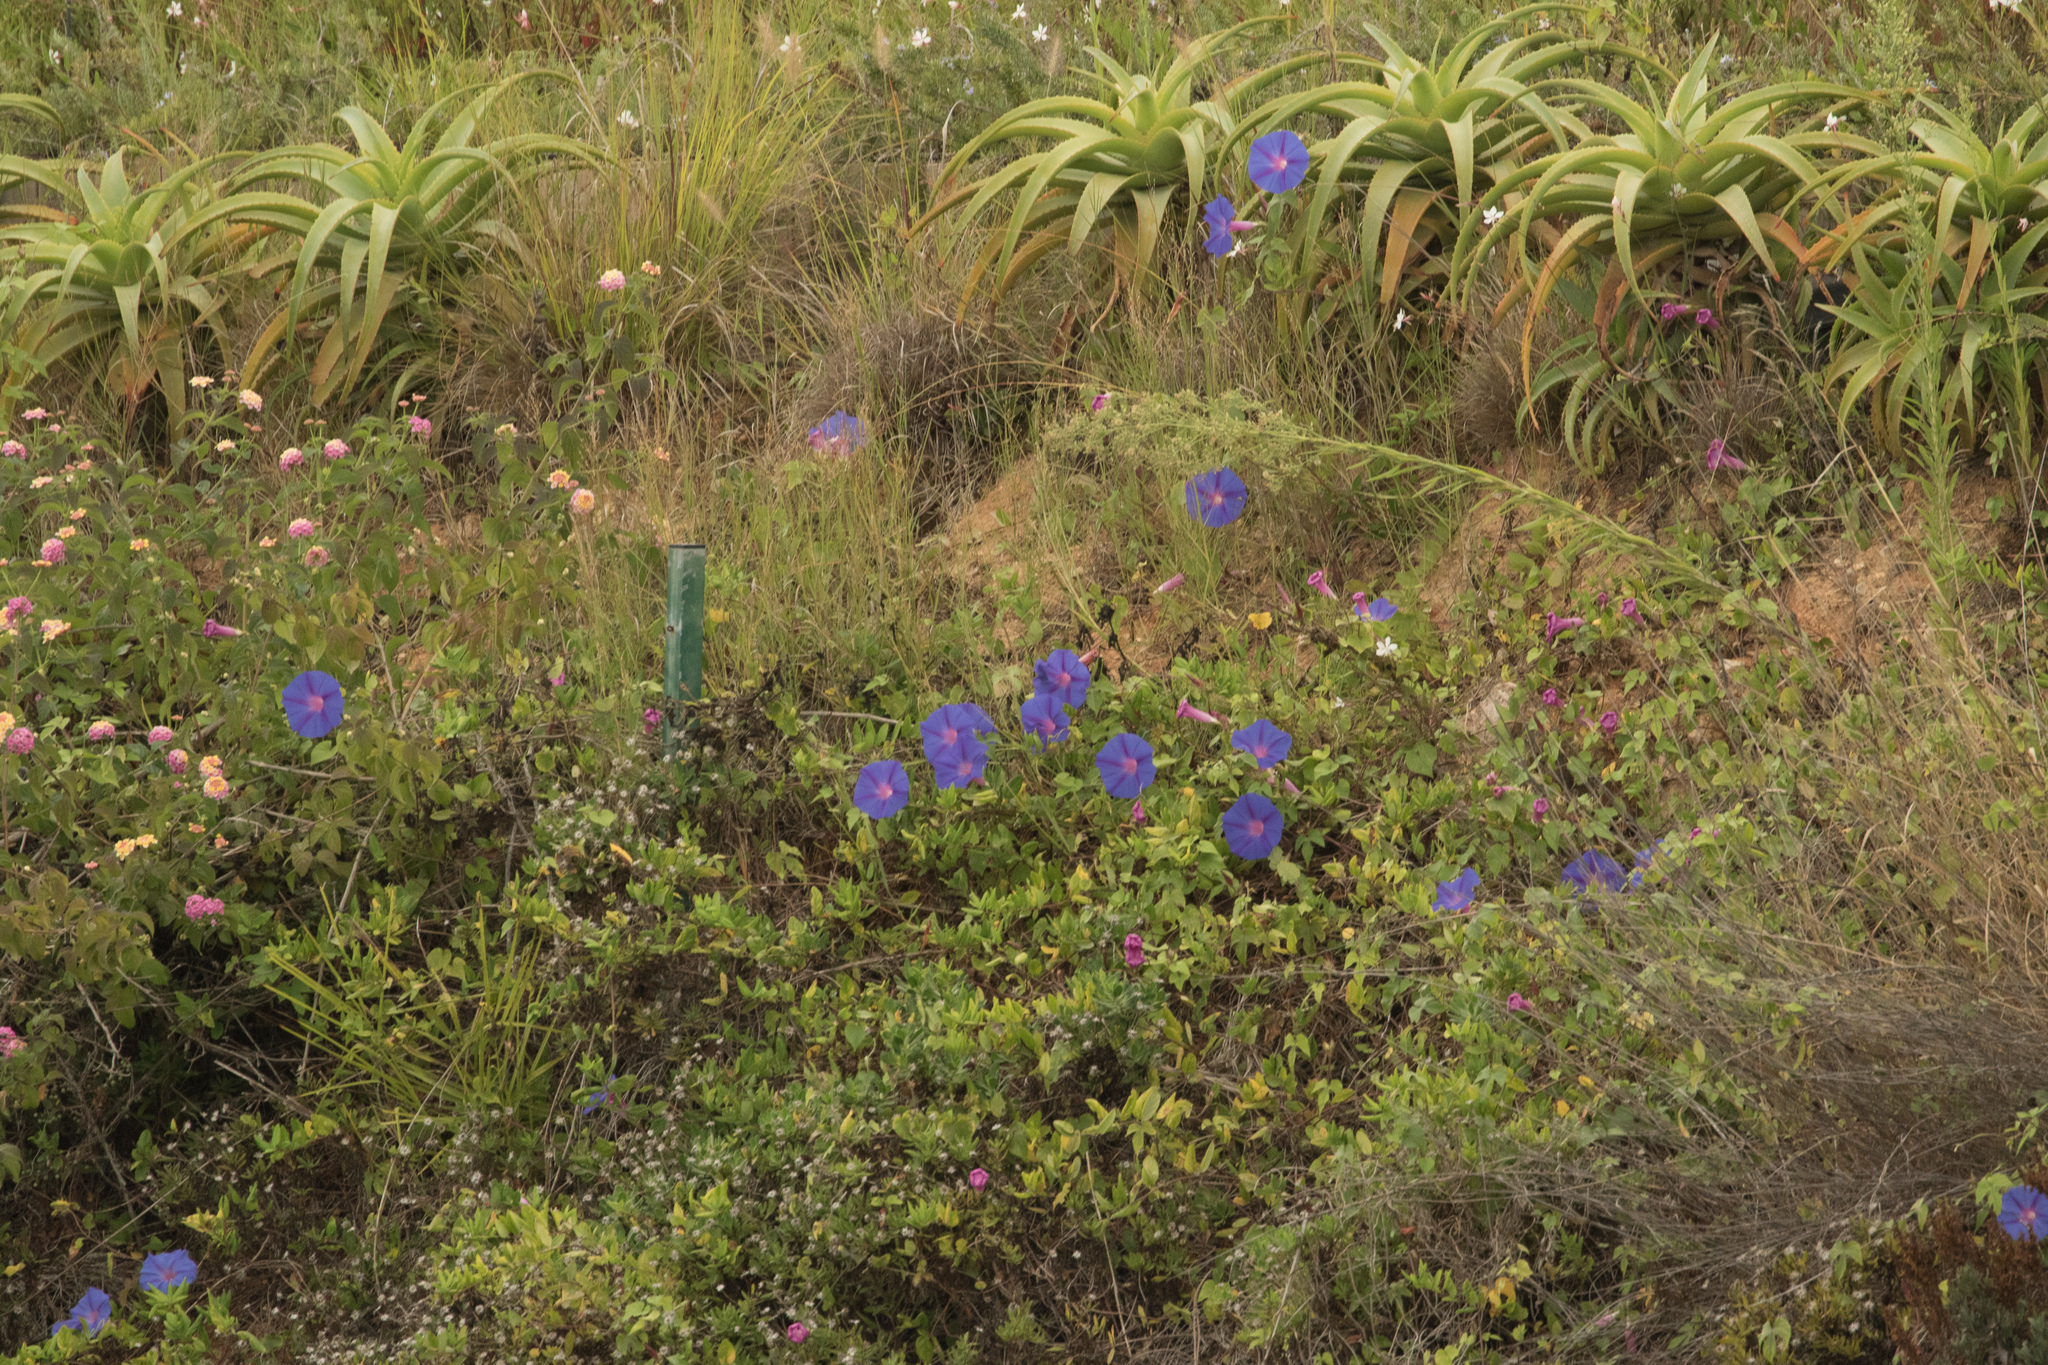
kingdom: Plantae
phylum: Tracheophyta
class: Magnoliopsida
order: Solanales
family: Convolvulaceae
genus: Ipomoea
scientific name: Ipomoea indica
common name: Blue dawnflower
